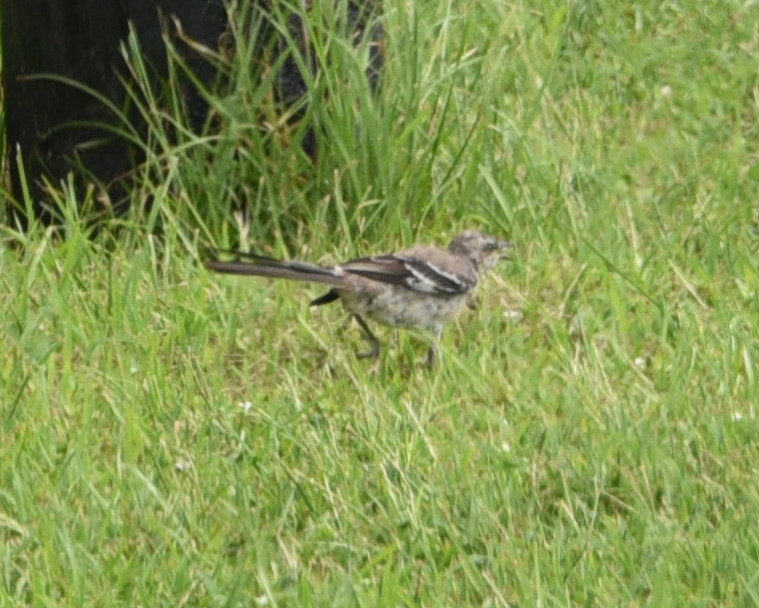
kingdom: Animalia
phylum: Chordata
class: Aves
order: Passeriformes
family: Mimidae
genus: Mimus
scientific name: Mimus polyglottos
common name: Northern mockingbird
